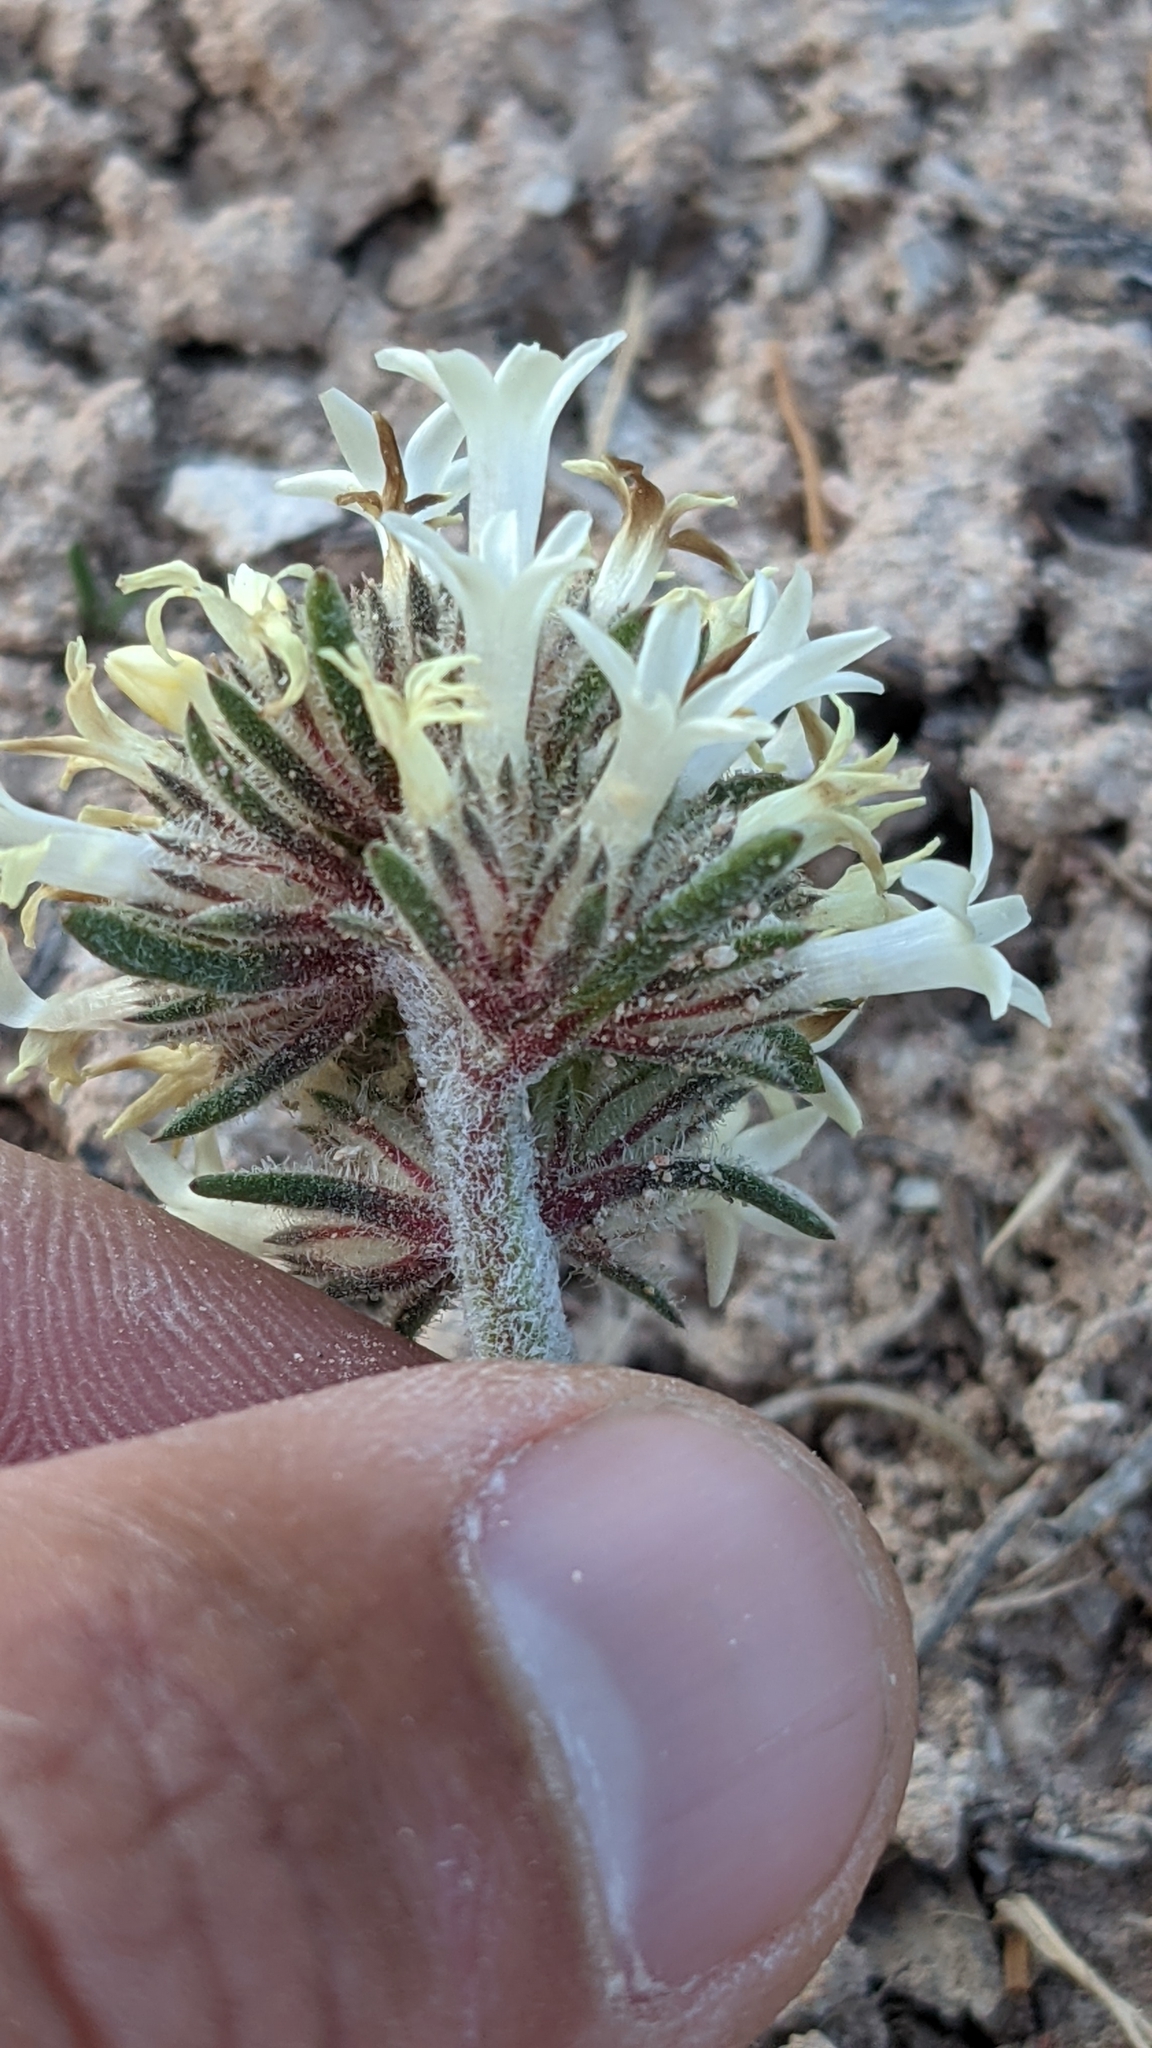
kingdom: Plantae
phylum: Tracheophyta
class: Magnoliopsida
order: Ericales
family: Polemoniaceae
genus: Ipomopsis
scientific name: Ipomopsis spicata
